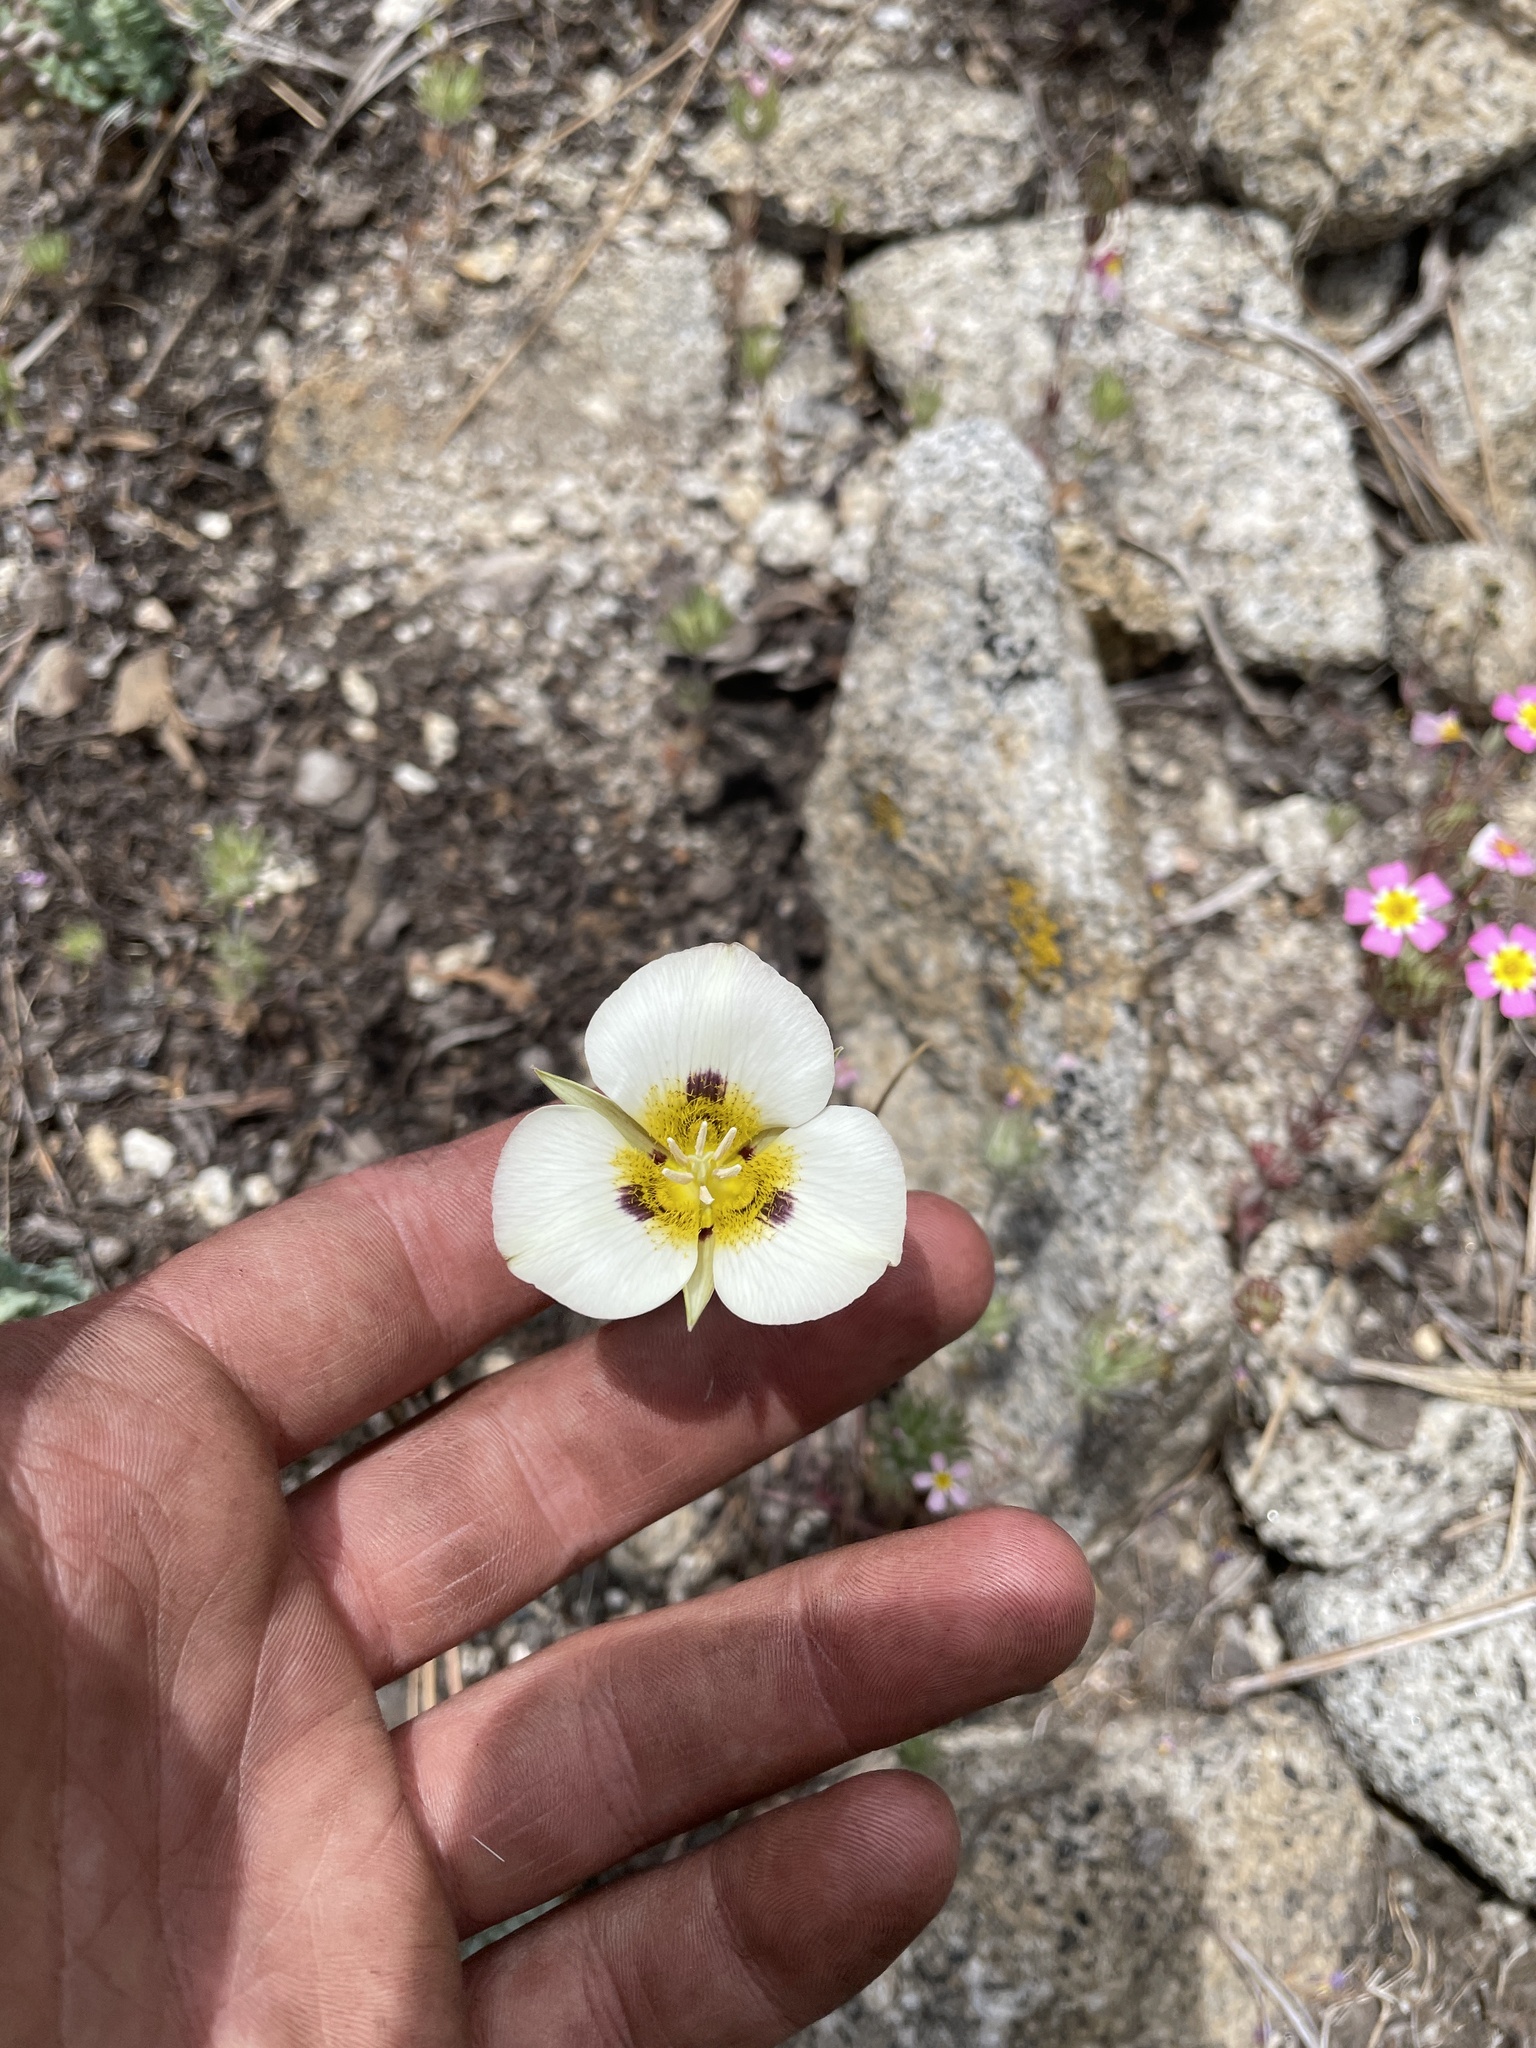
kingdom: Plantae
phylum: Tracheophyta
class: Liliopsida
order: Liliales
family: Liliaceae
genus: Calochortus
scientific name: Calochortus leichtlinii
